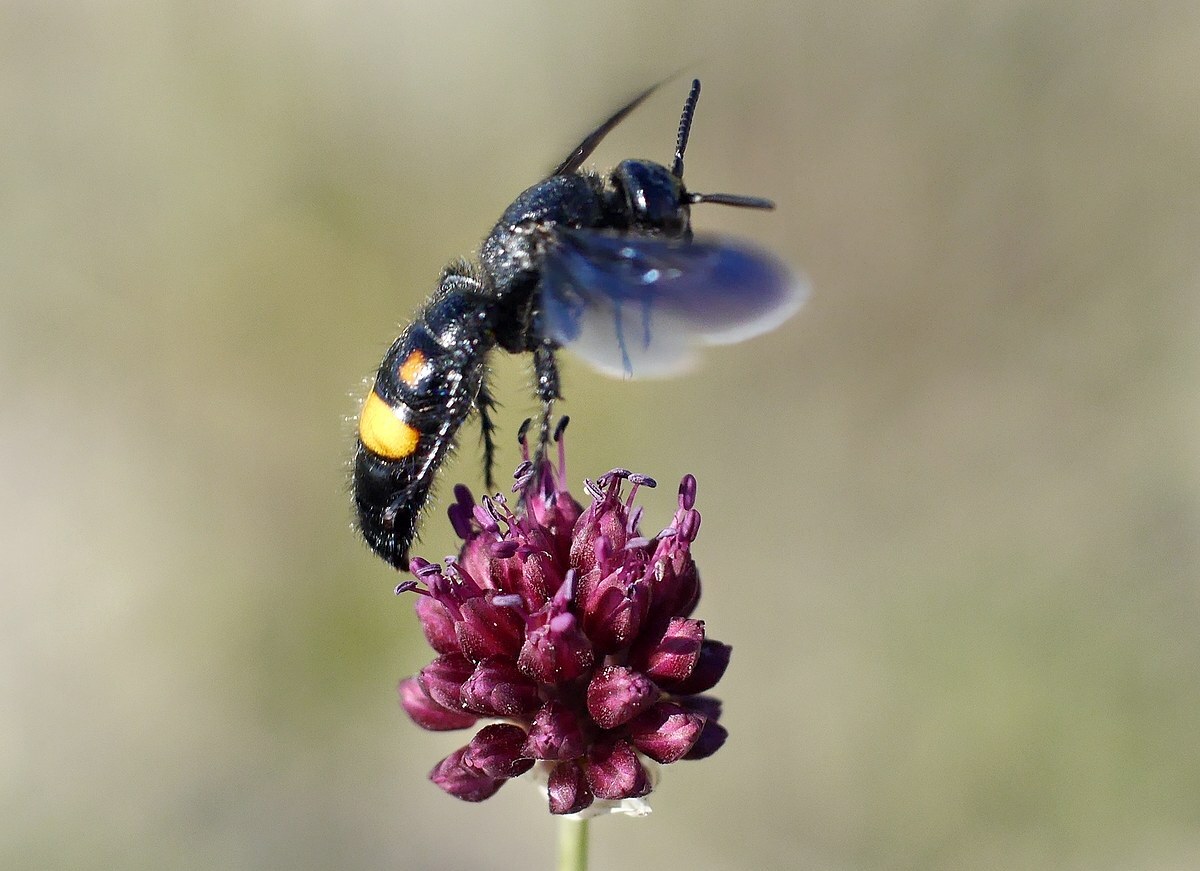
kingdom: Animalia
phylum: Arthropoda
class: Insecta
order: Hymenoptera
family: Scoliidae
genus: Scolia
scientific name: Scolia hirta
